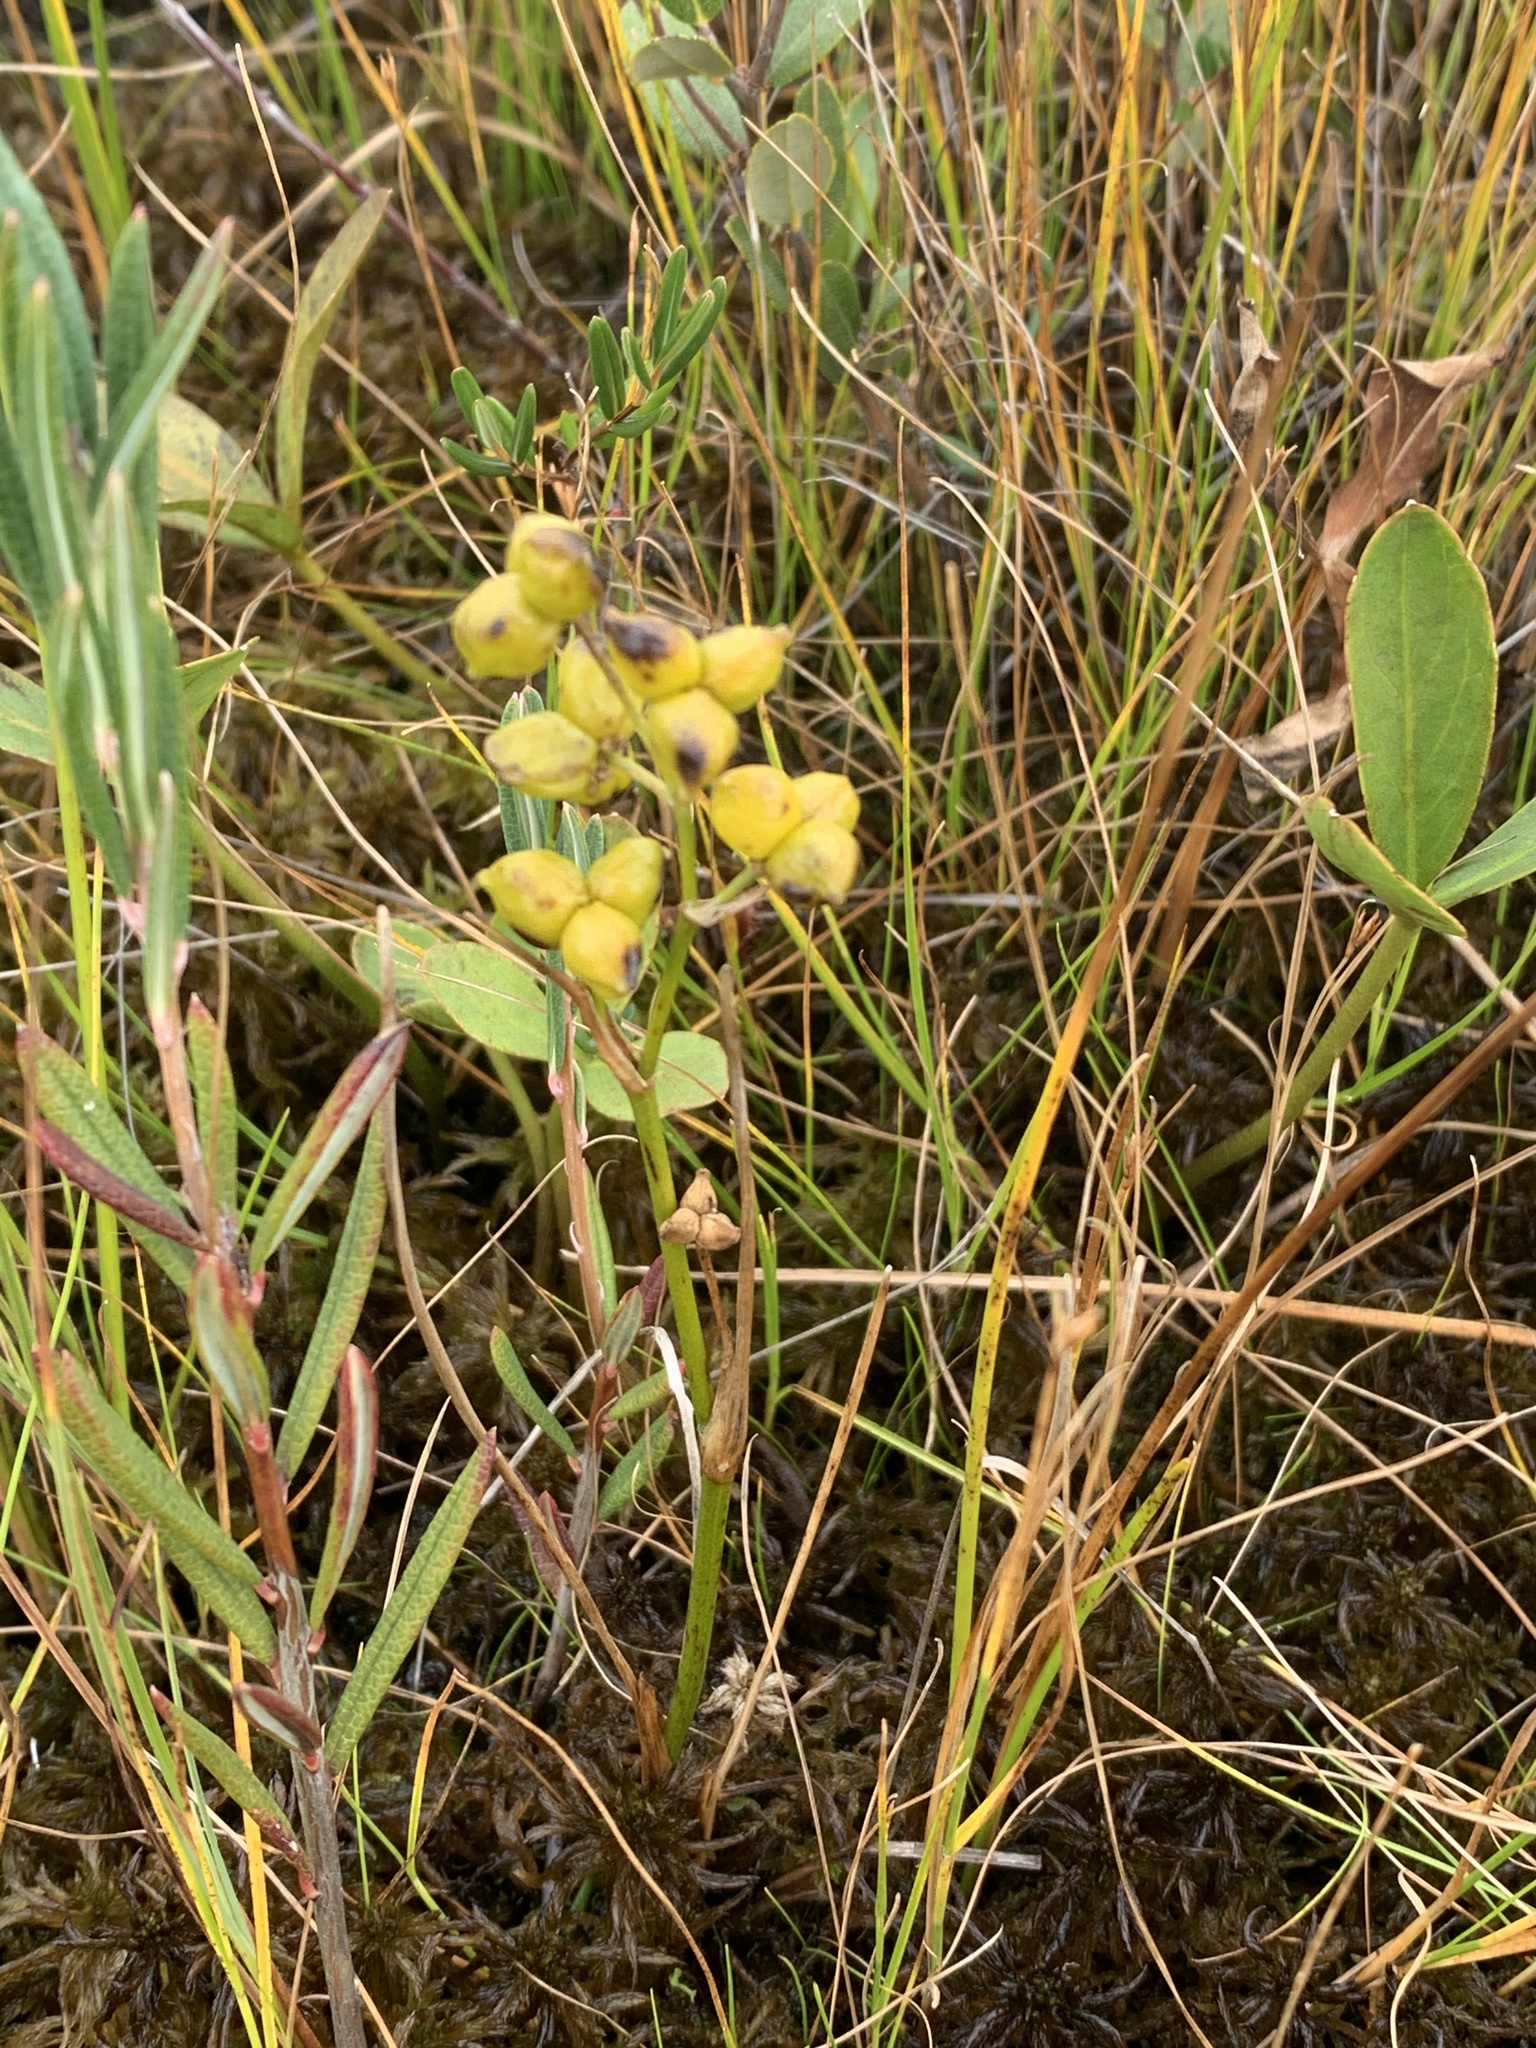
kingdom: Plantae
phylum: Tracheophyta
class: Liliopsida
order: Alismatales
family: Scheuchzeriaceae
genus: Scheuchzeria
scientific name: Scheuchzeria palustris
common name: Rannoch-rush
